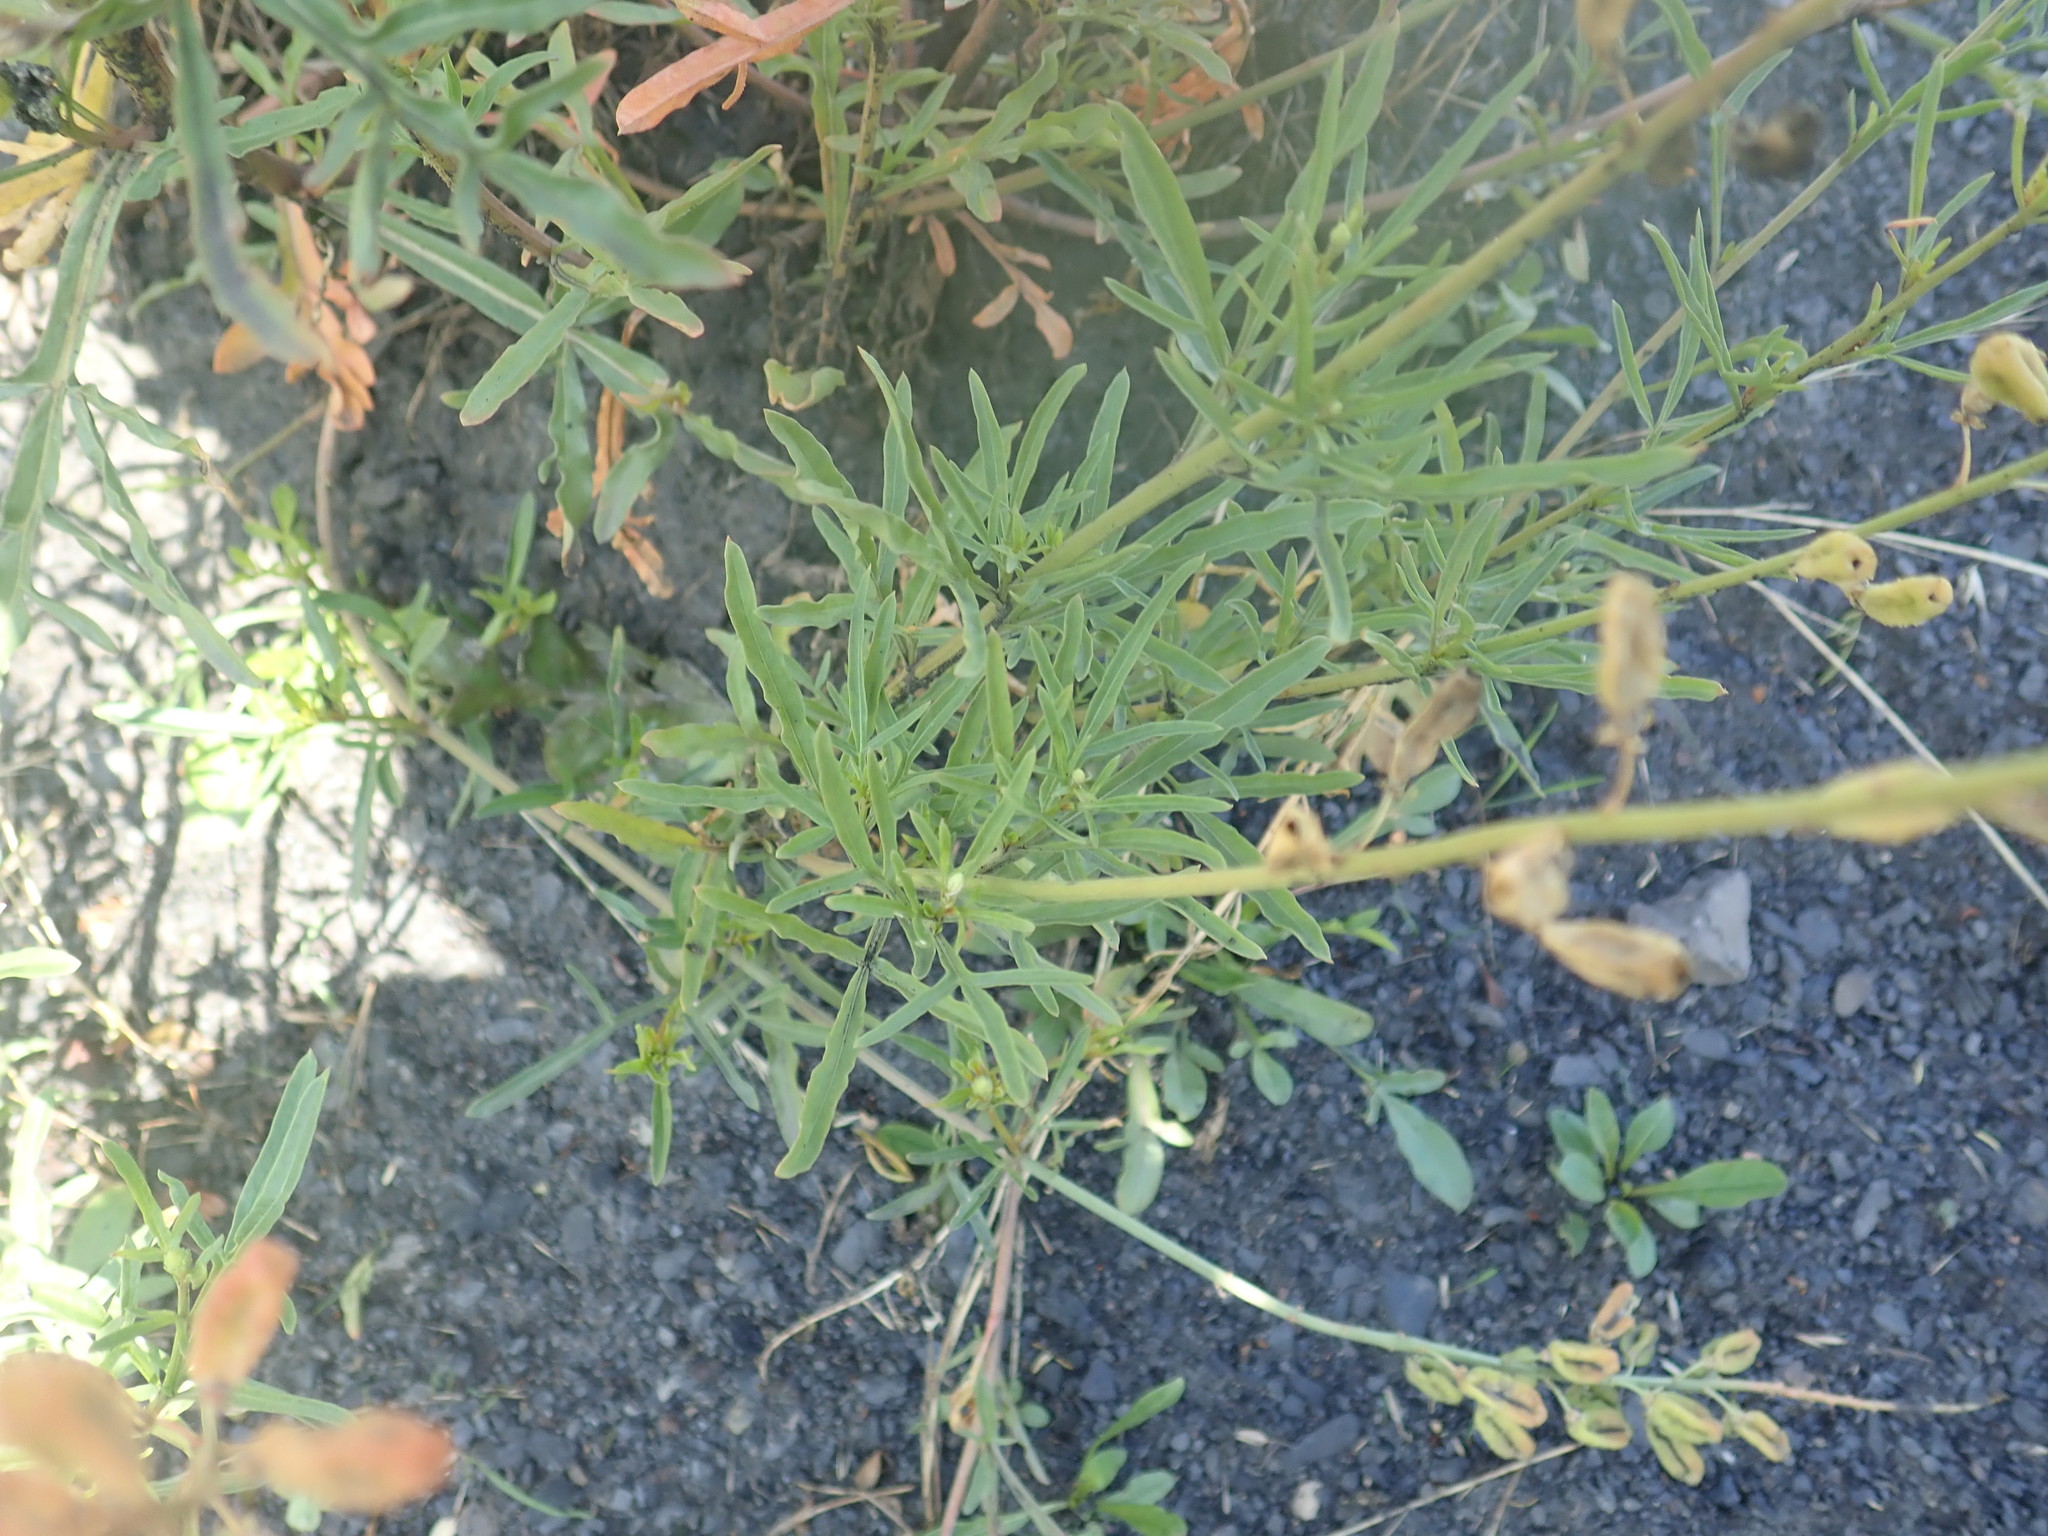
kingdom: Plantae
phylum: Tracheophyta
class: Magnoliopsida
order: Brassicales
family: Resedaceae
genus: Reseda
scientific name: Reseda lutea
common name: Wild mignonette
